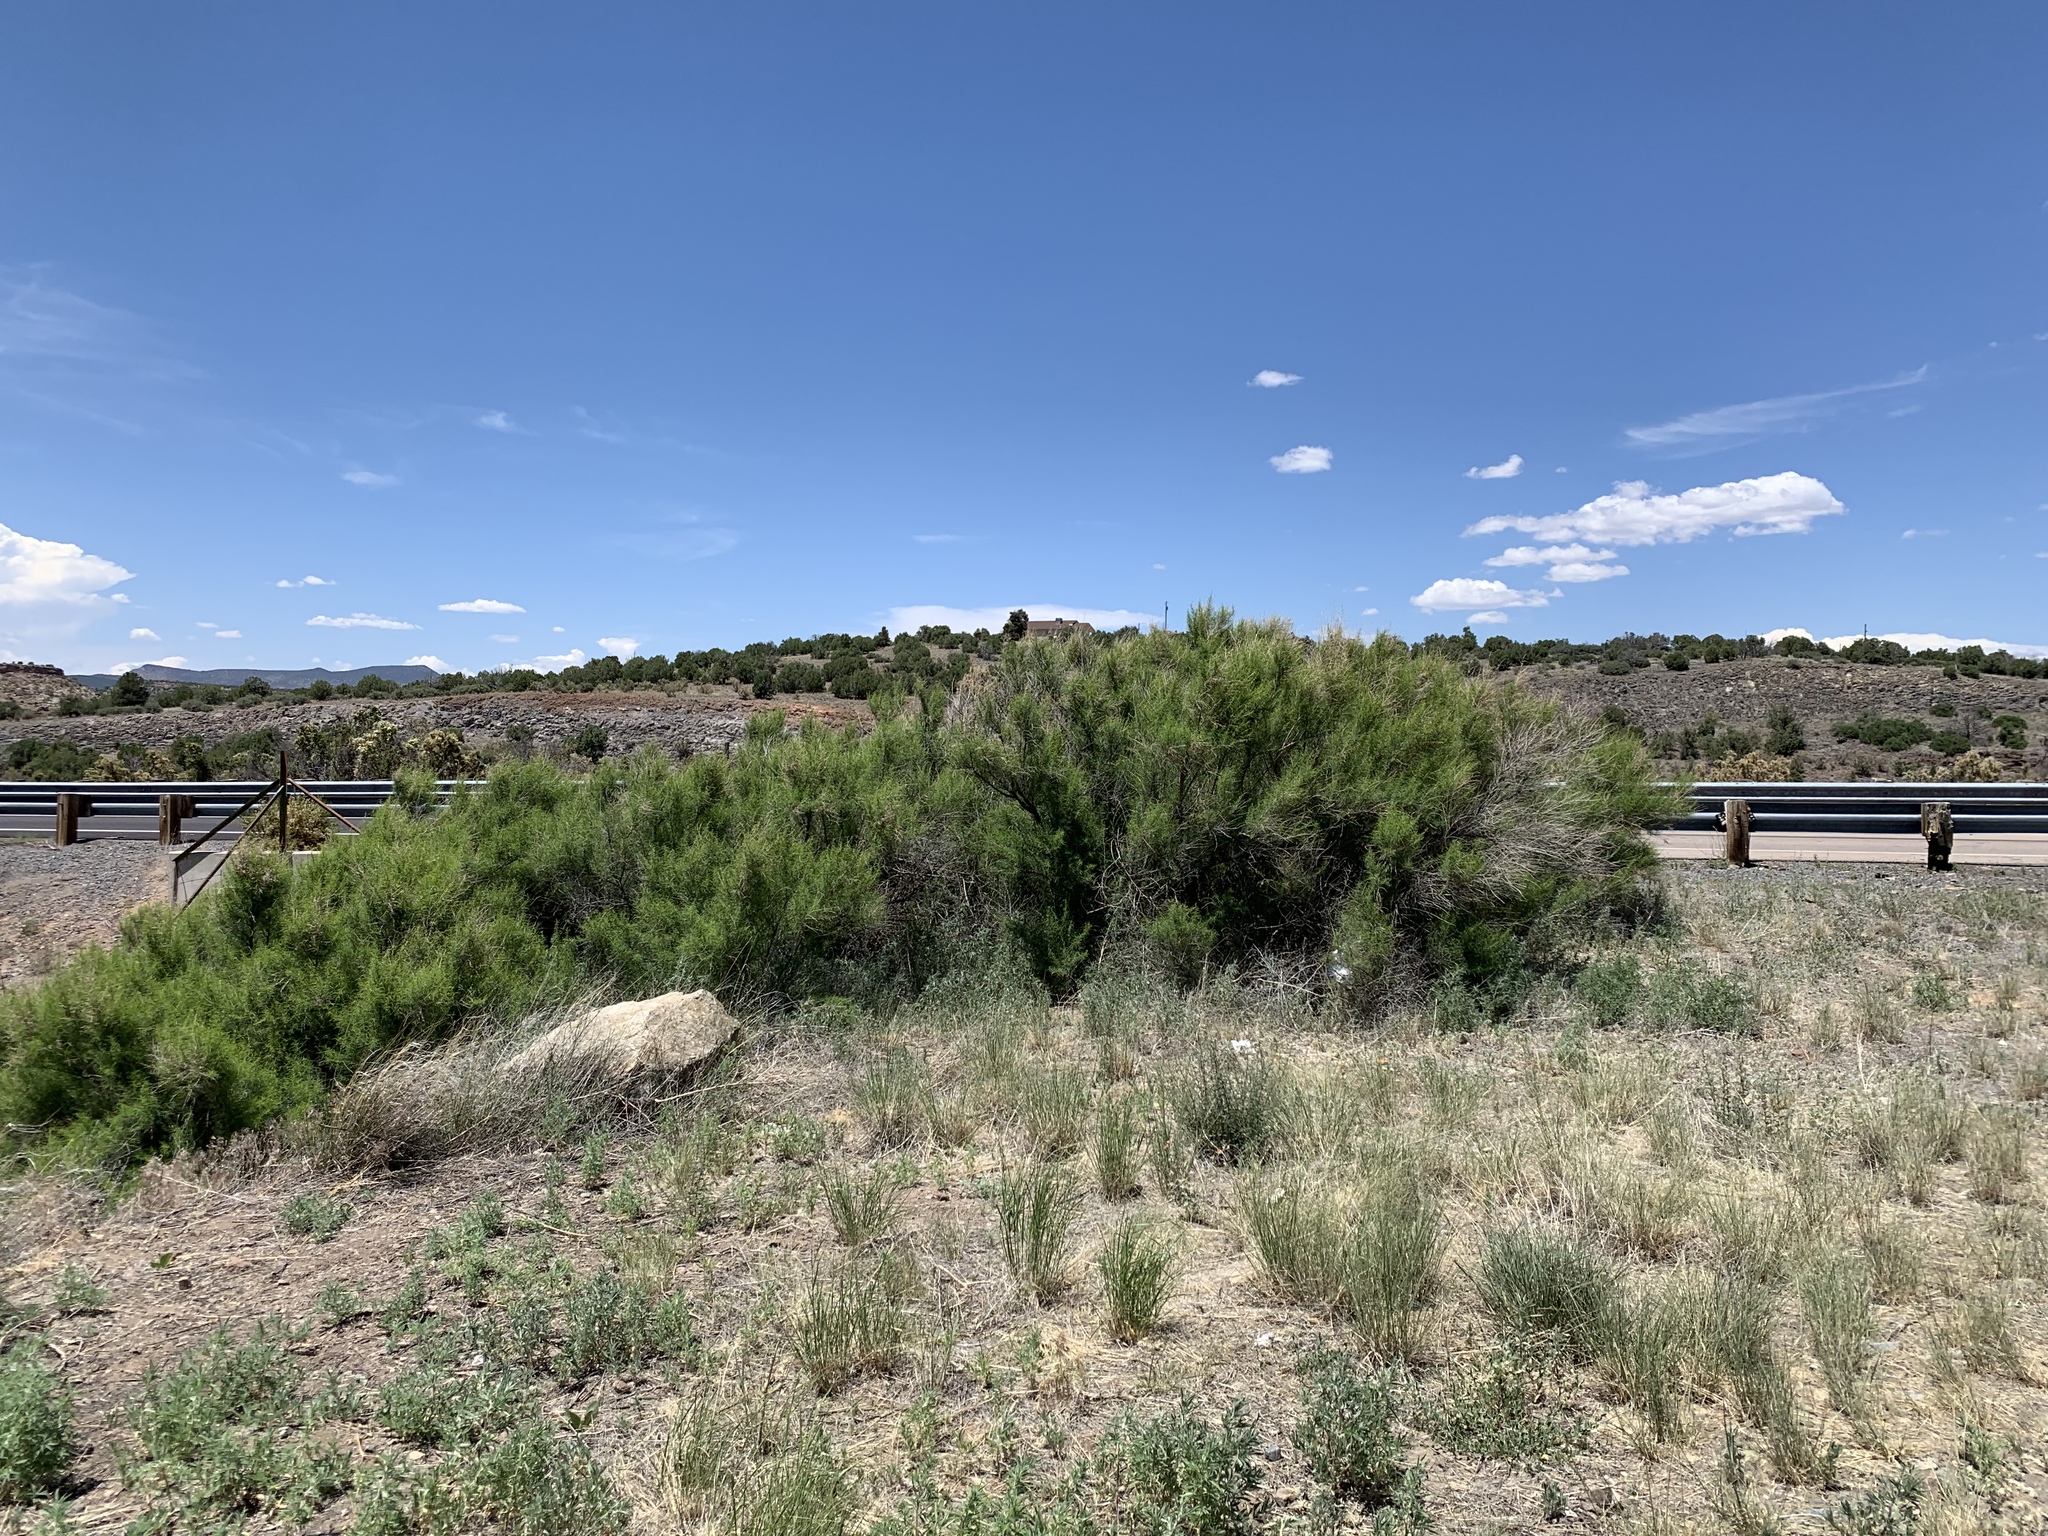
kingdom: Plantae
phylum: Tracheophyta
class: Magnoliopsida
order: Asterales
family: Asteraceae
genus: Ambrosia
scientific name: Ambrosia monogyra
